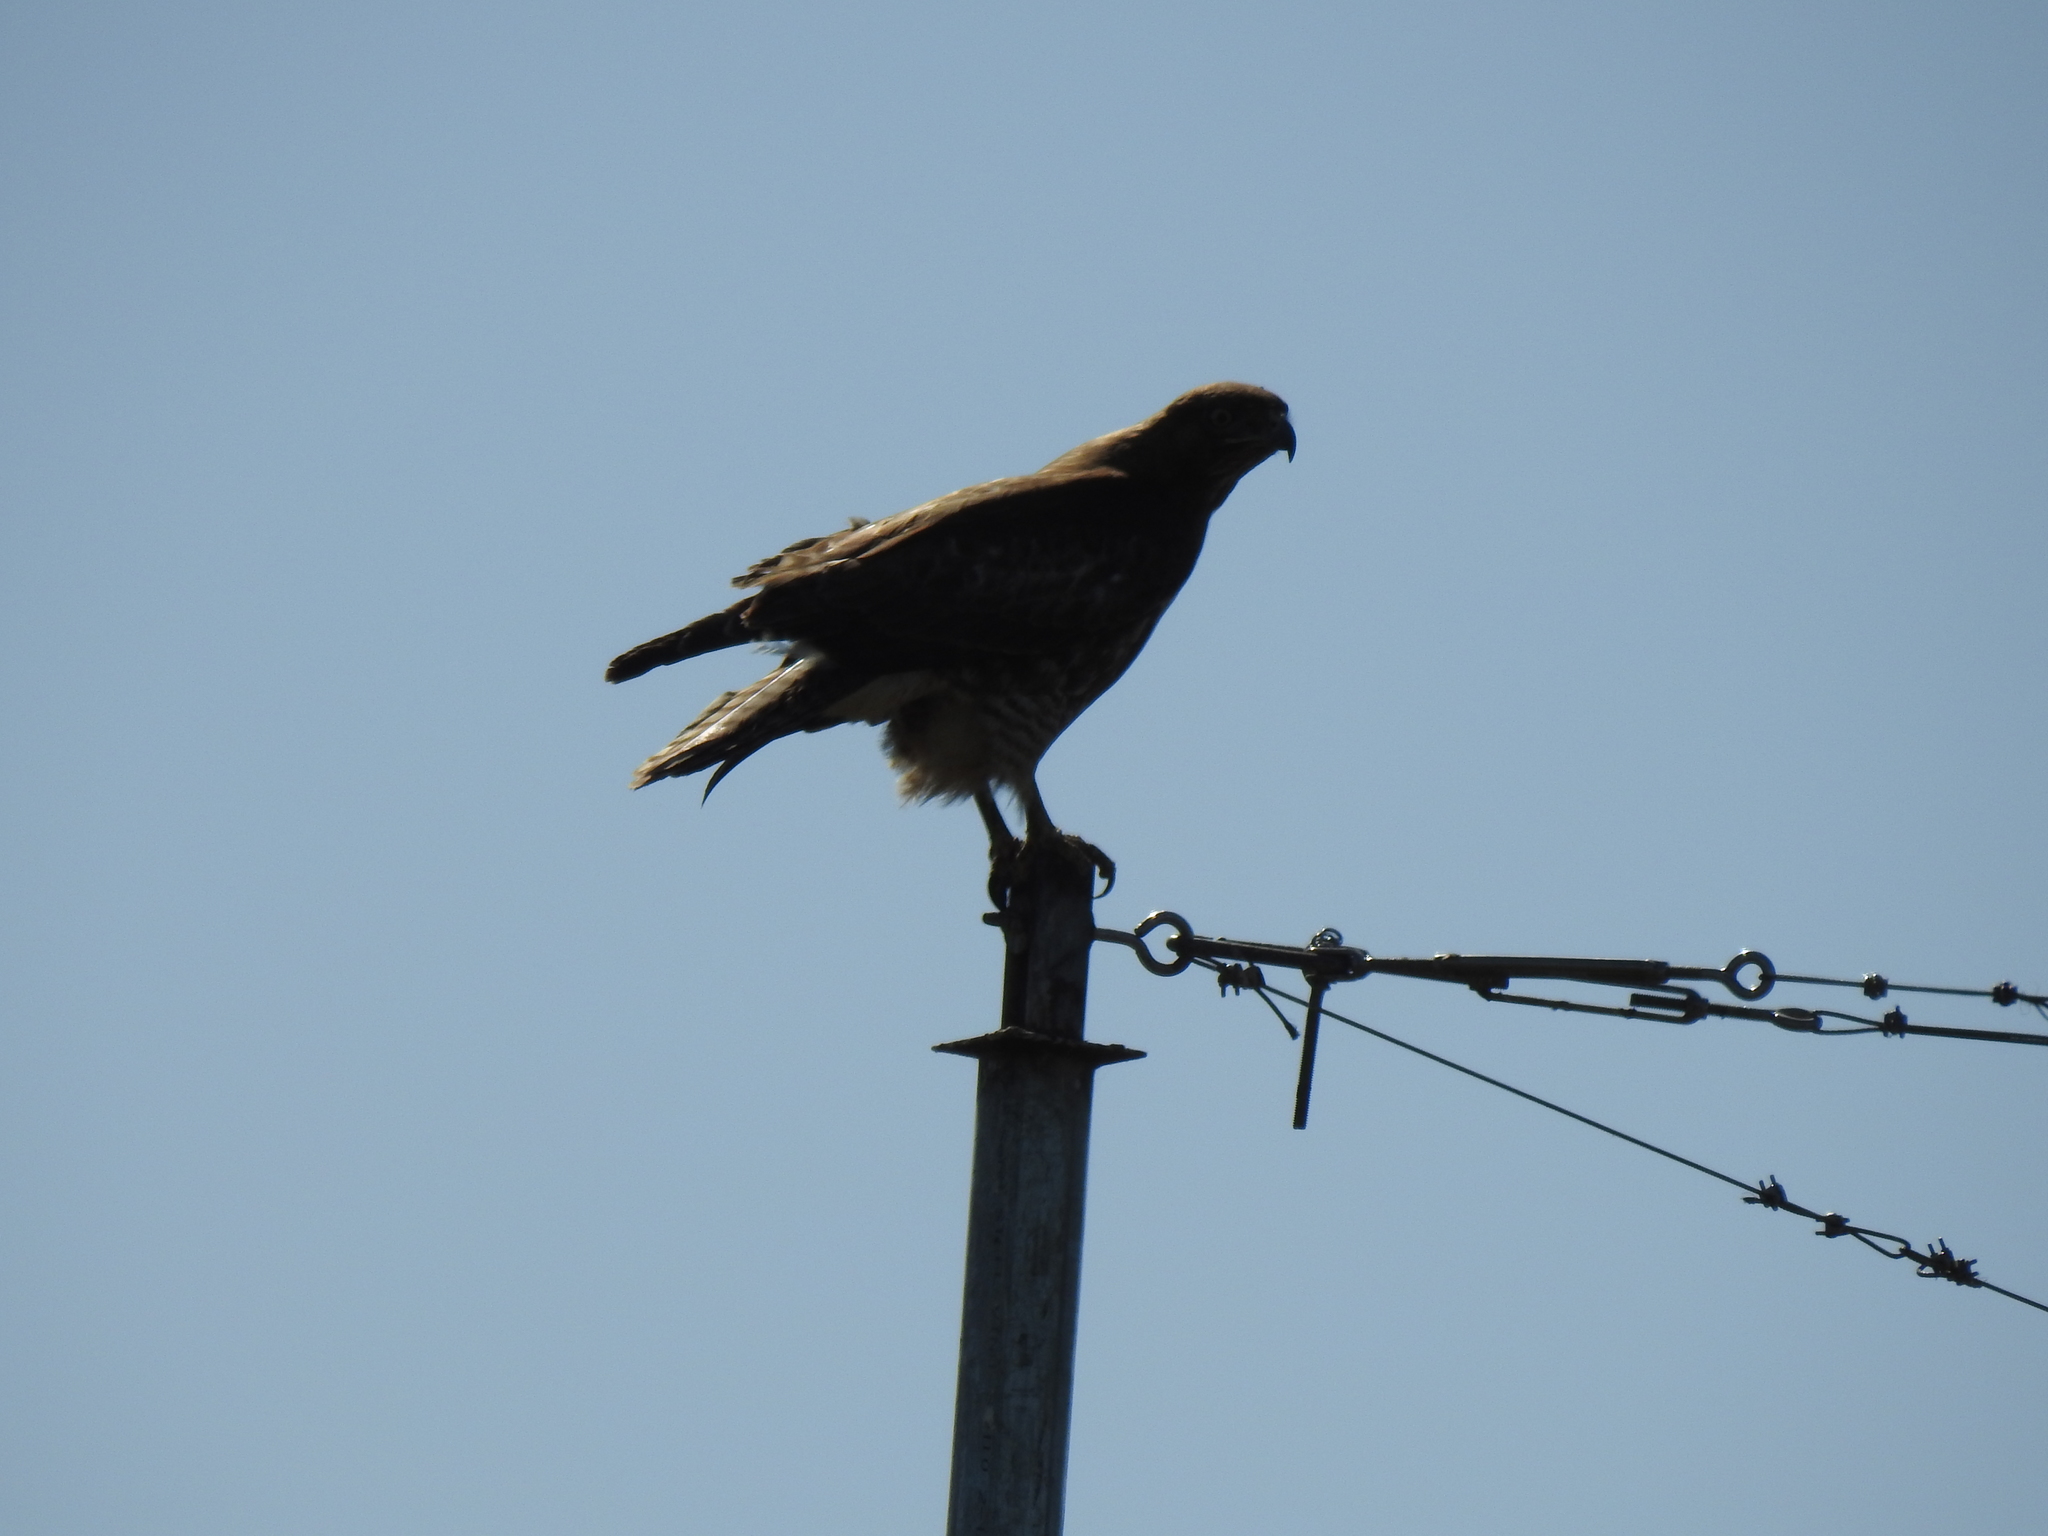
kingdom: Animalia
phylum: Chordata
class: Aves
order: Accipitriformes
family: Accipitridae
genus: Buteo
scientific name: Buteo jamaicensis
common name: Red-tailed hawk
